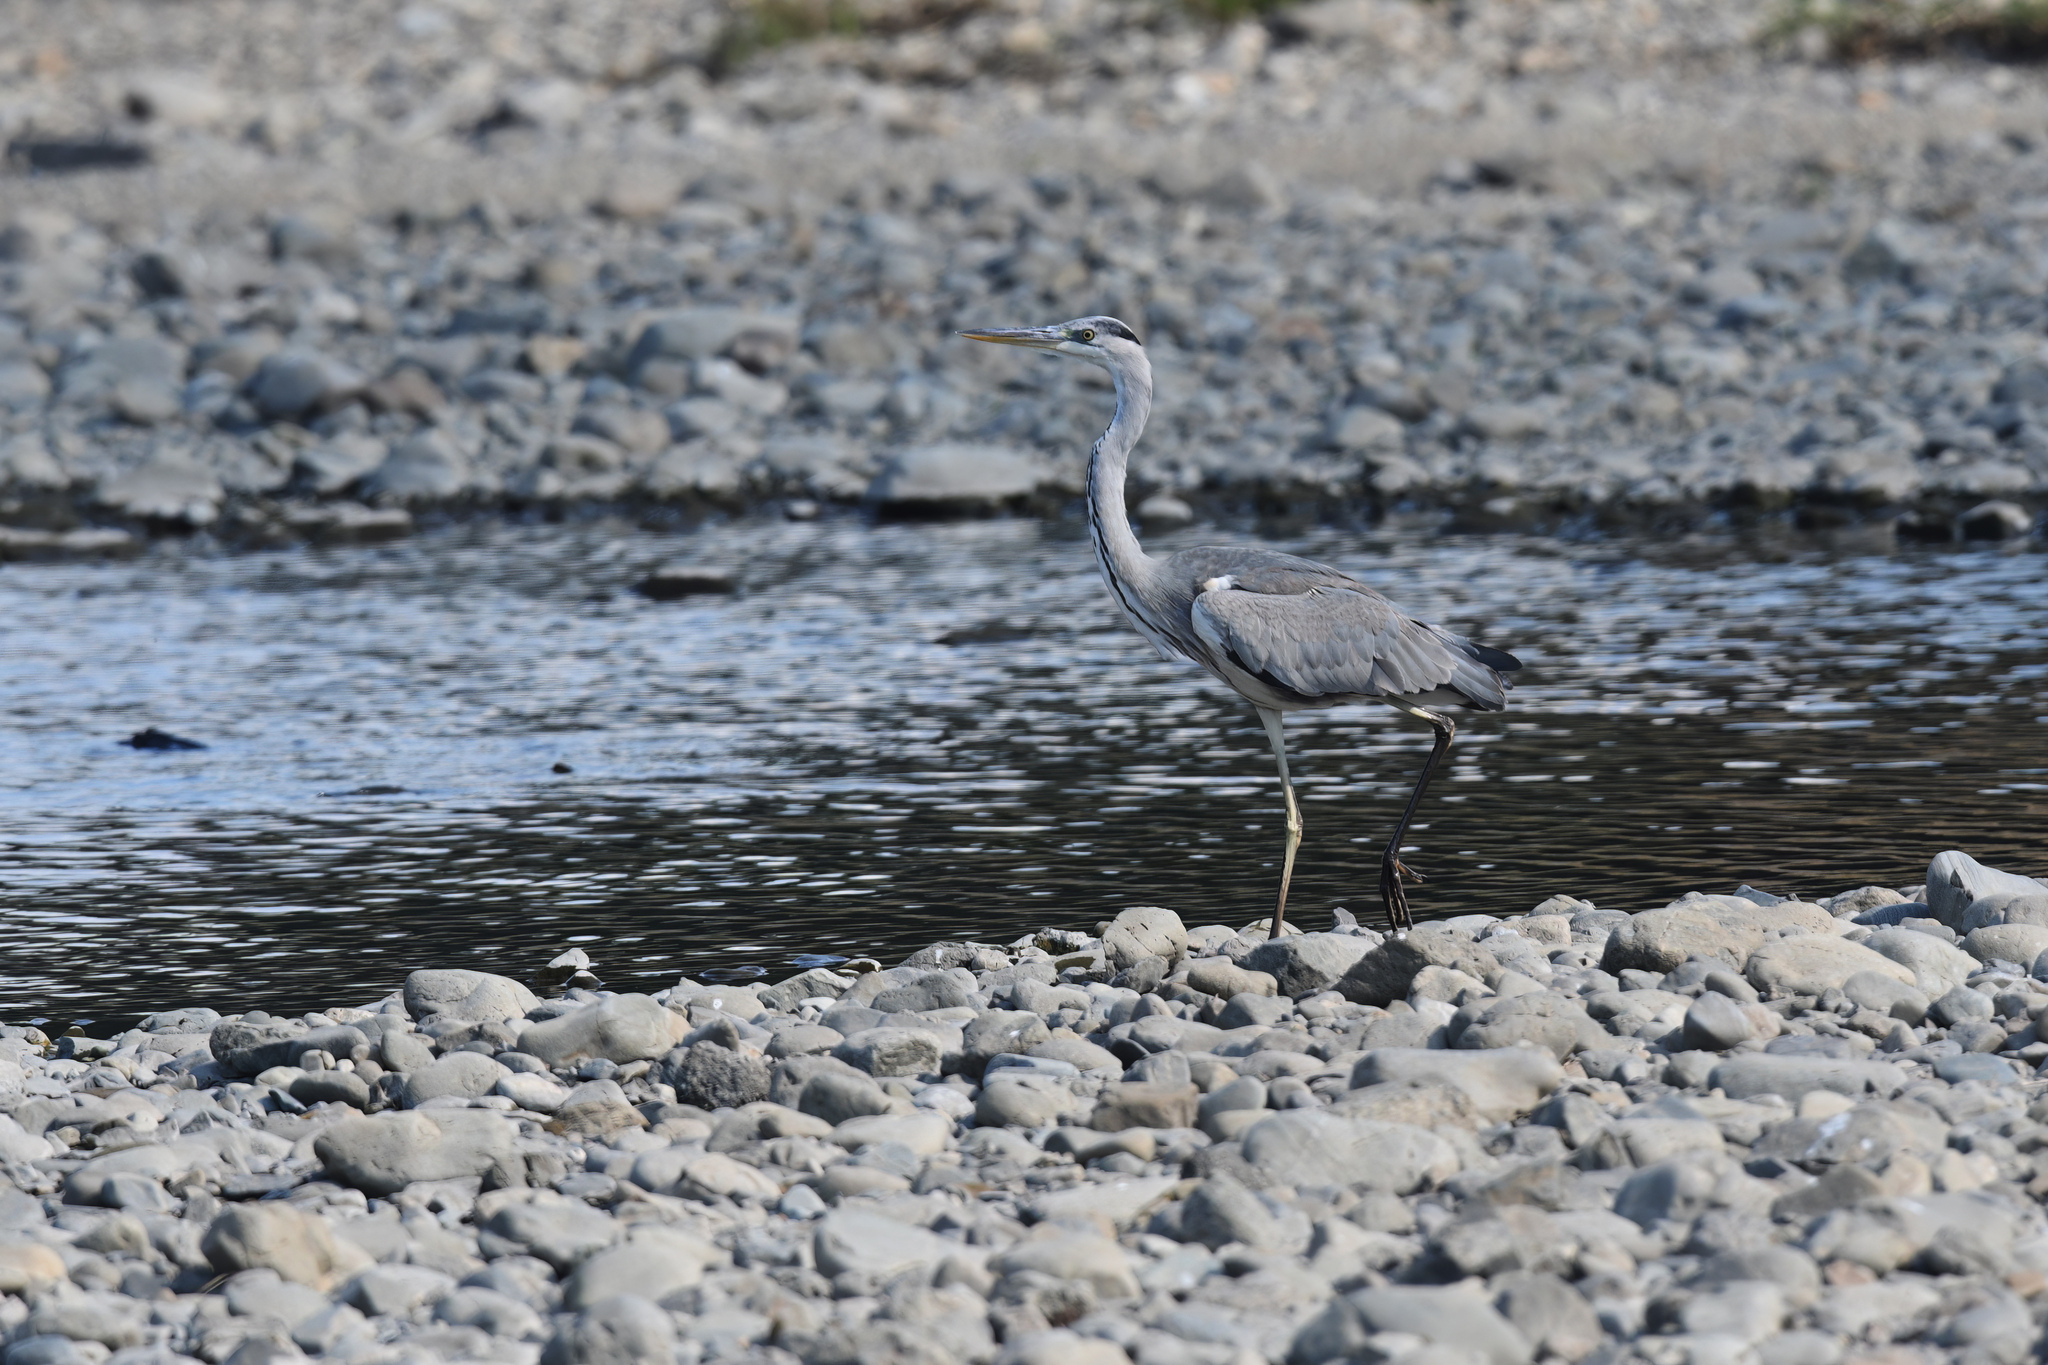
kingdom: Animalia
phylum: Chordata
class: Aves
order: Pelecaniformes
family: Ardeidae
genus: Ardea
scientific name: Ardea cinerea
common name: Grey heron
